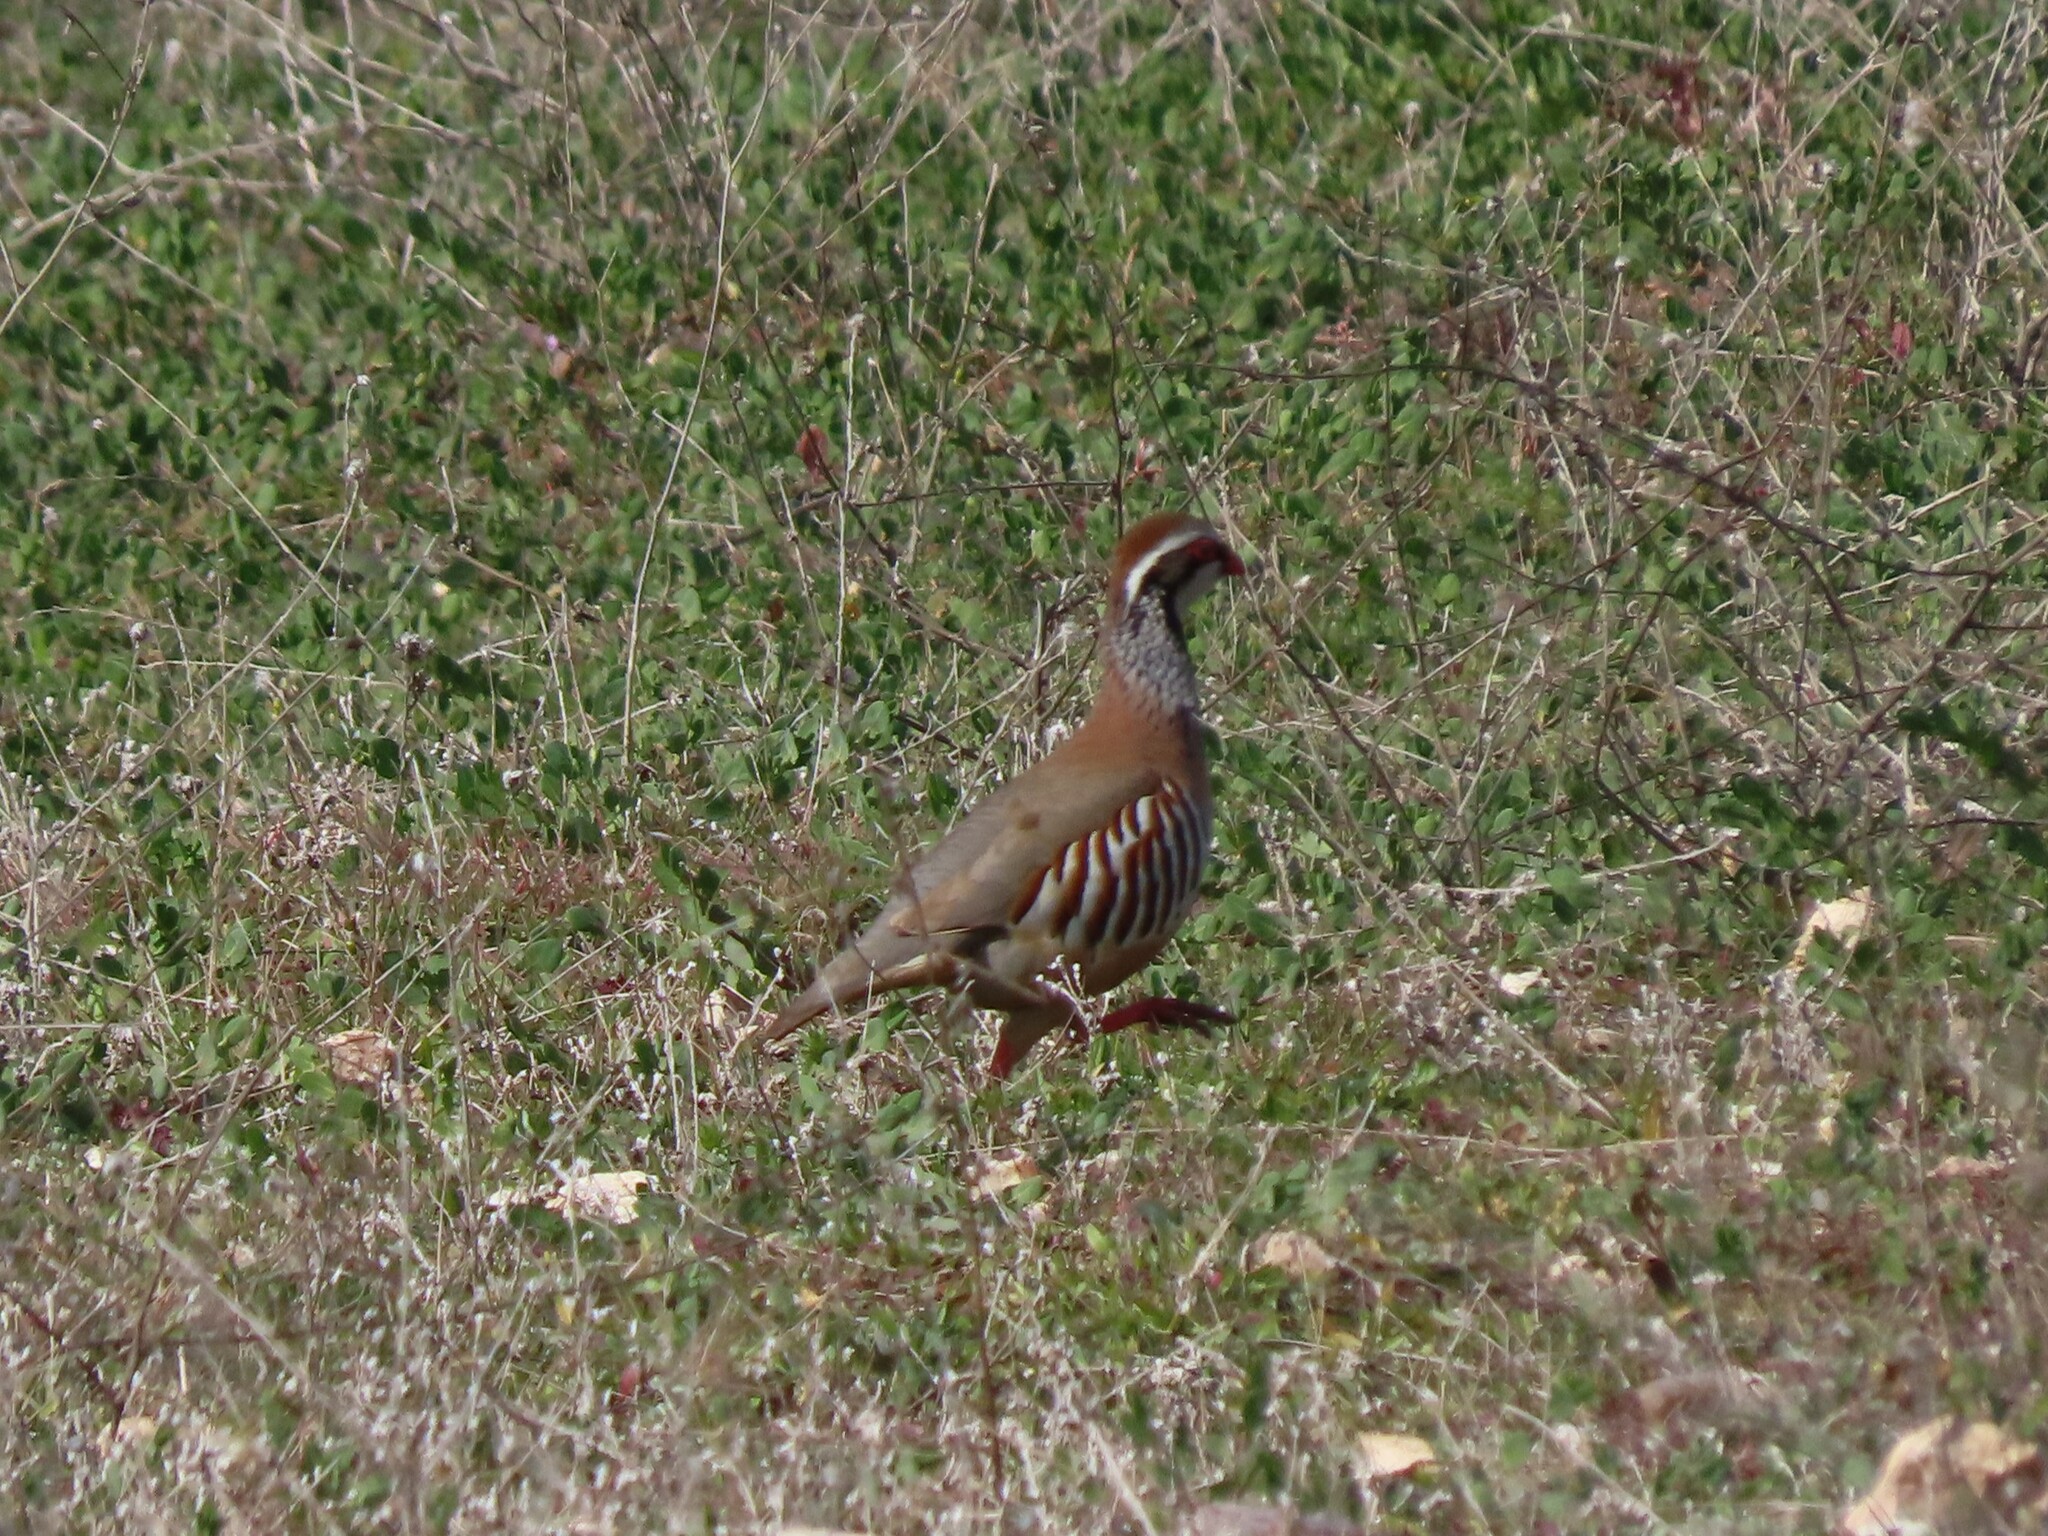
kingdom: Animalia
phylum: Chordata
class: Aves
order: Galliformes
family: Phasianidae
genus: Alectoris
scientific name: Alectoris rufa
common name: Red-legged partridge
